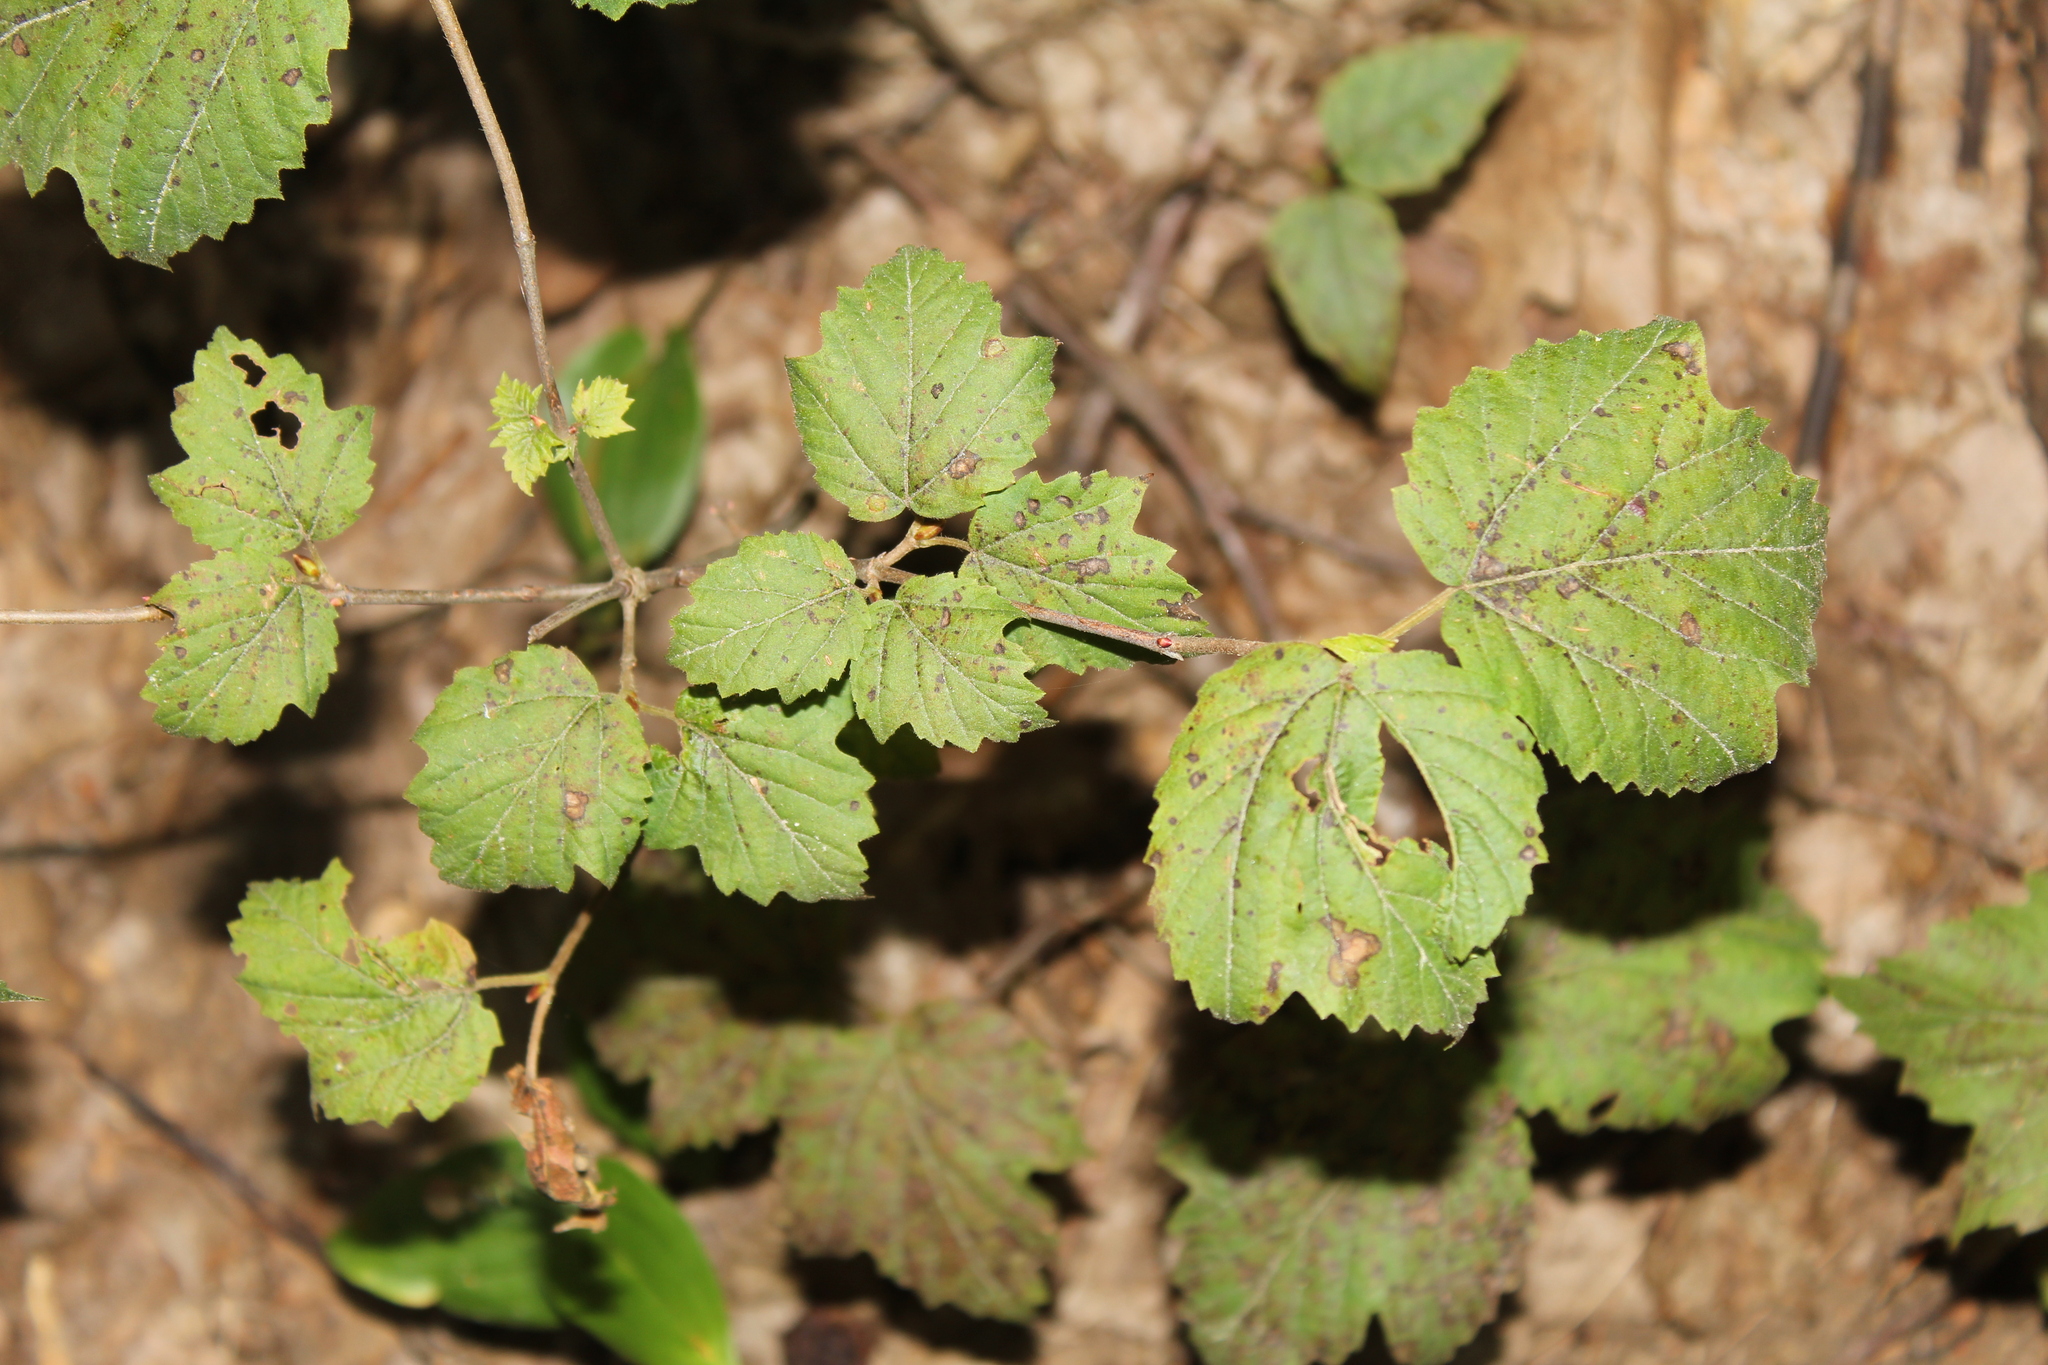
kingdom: Plantae
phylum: Tracheophyta
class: Magnoliopsida
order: Dipsacales
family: Viburnaceae
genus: Viburnum
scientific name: Viburnum acerifolium
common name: Dockmackie
